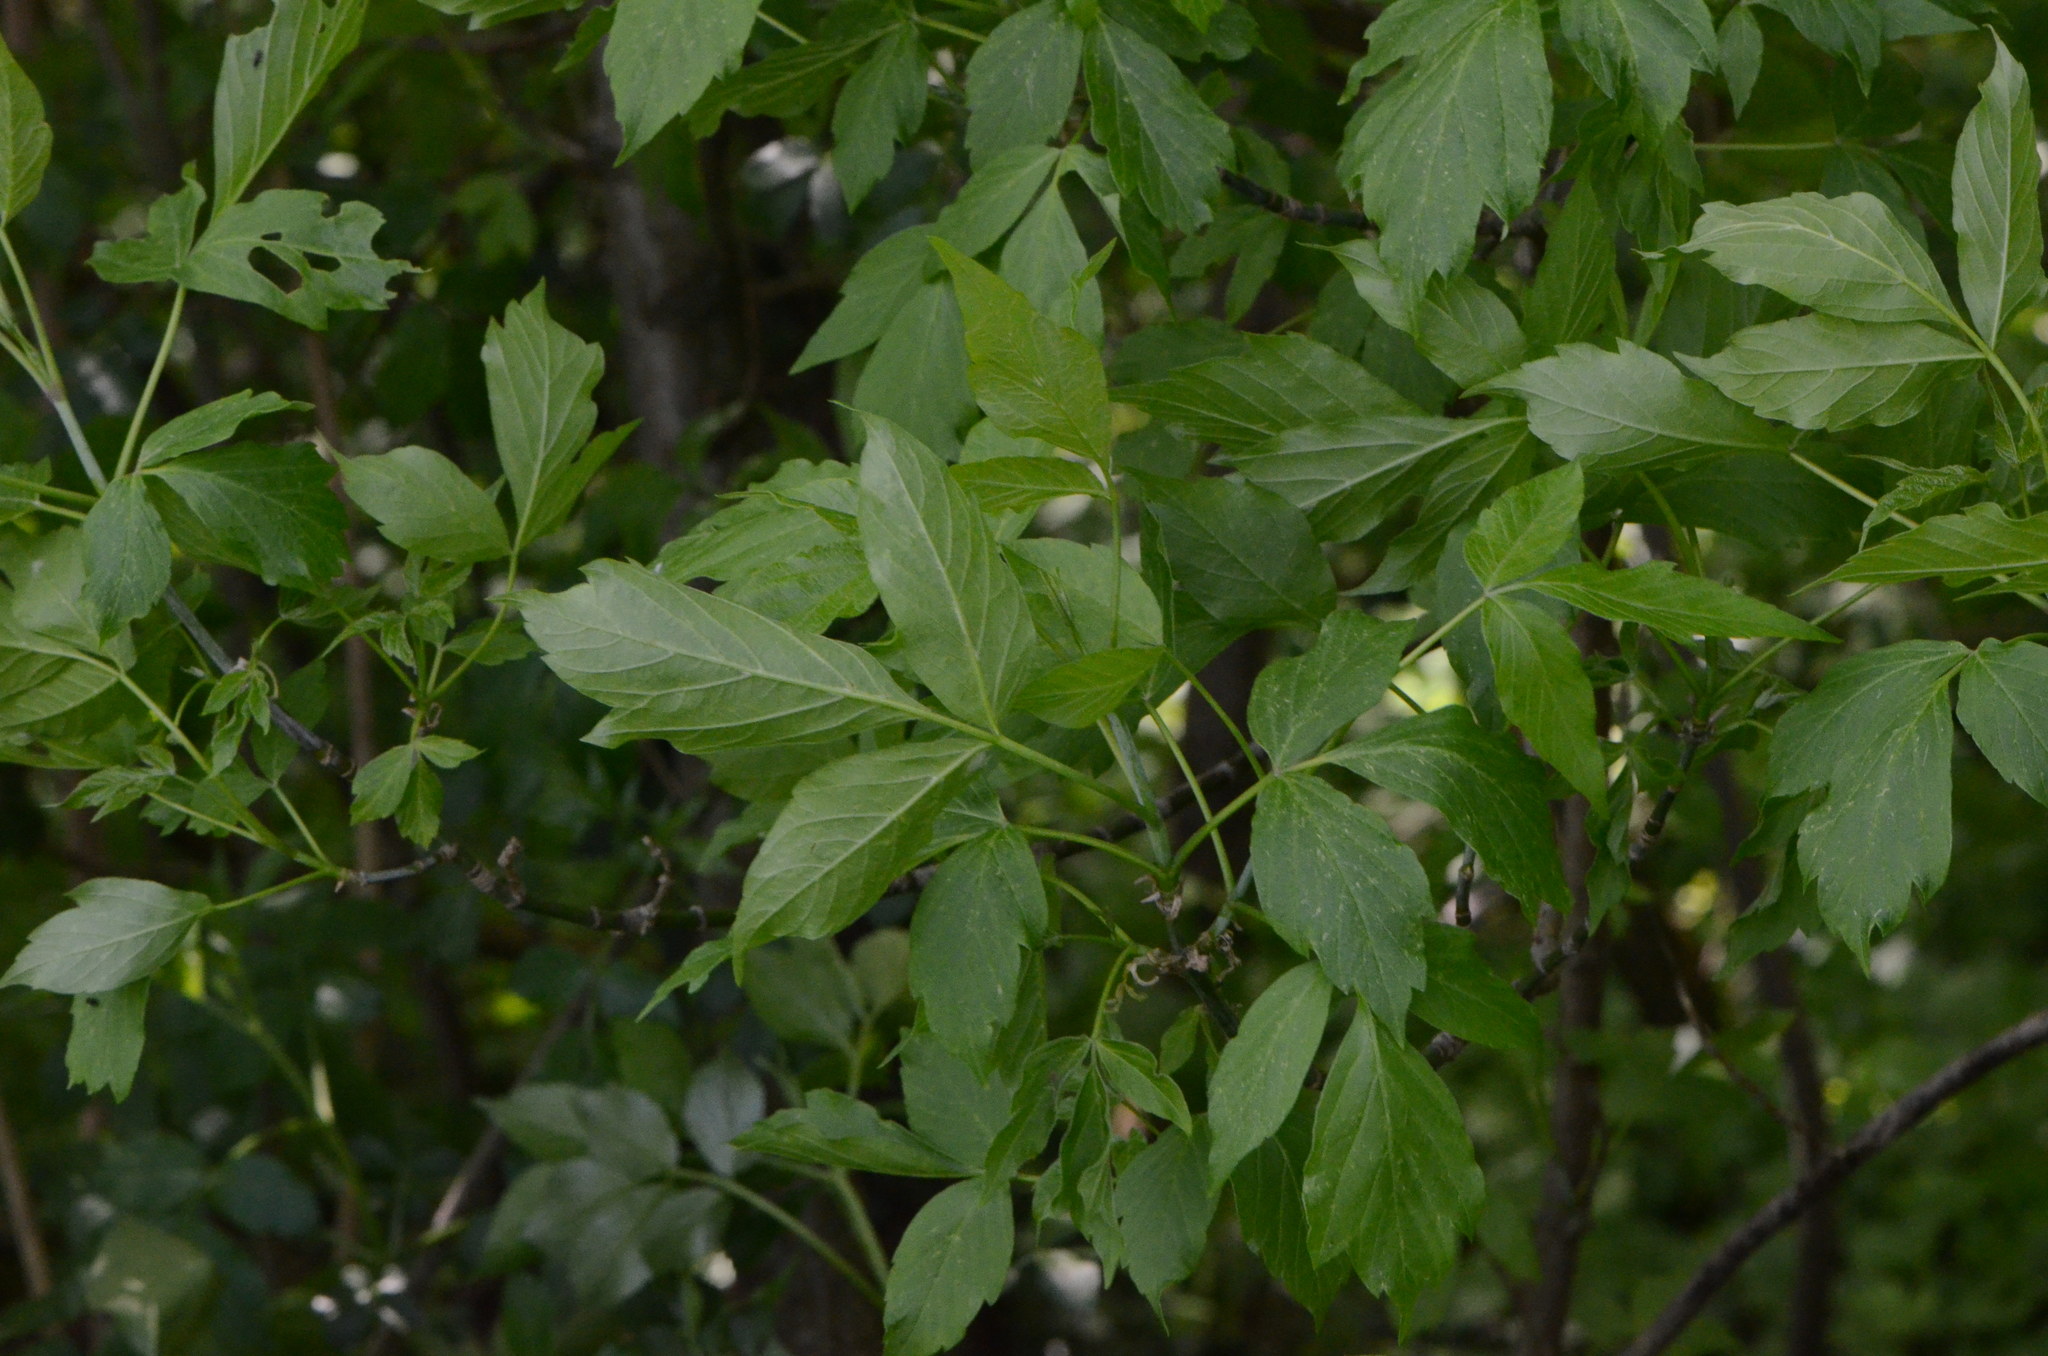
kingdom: Plantae
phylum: Tracheophyta
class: Magnoliopsida
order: Sapindales
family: Sapindaceae
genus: Acer
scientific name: Acer negundo
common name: Ashleaf maple
